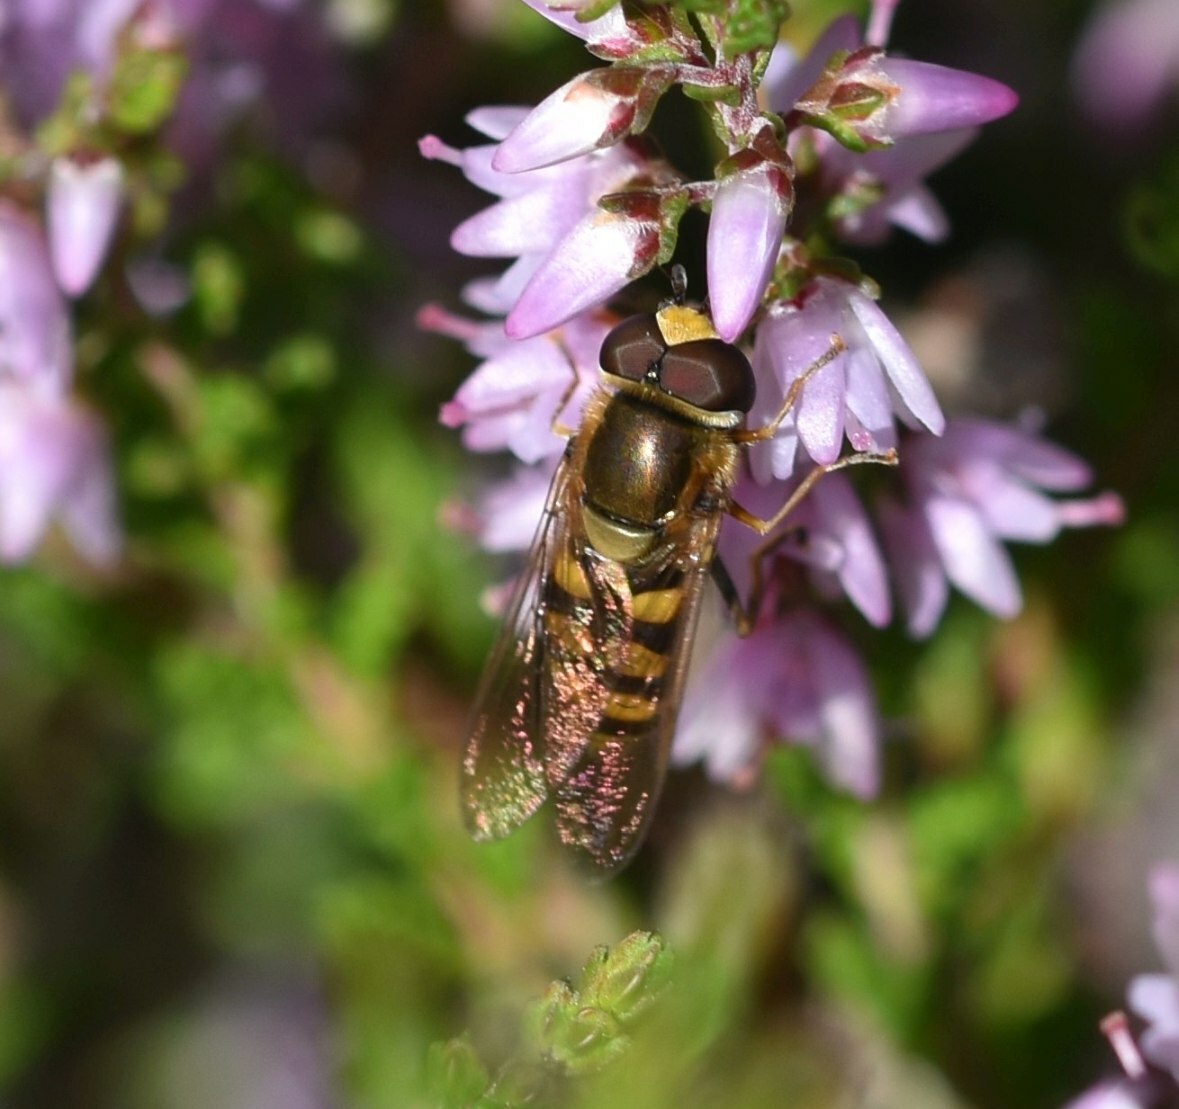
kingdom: Animalia
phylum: Arthropoda
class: Insecta
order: Diptera
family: Syrphidae
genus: Eupeodes
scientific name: Eupeodes corollae
